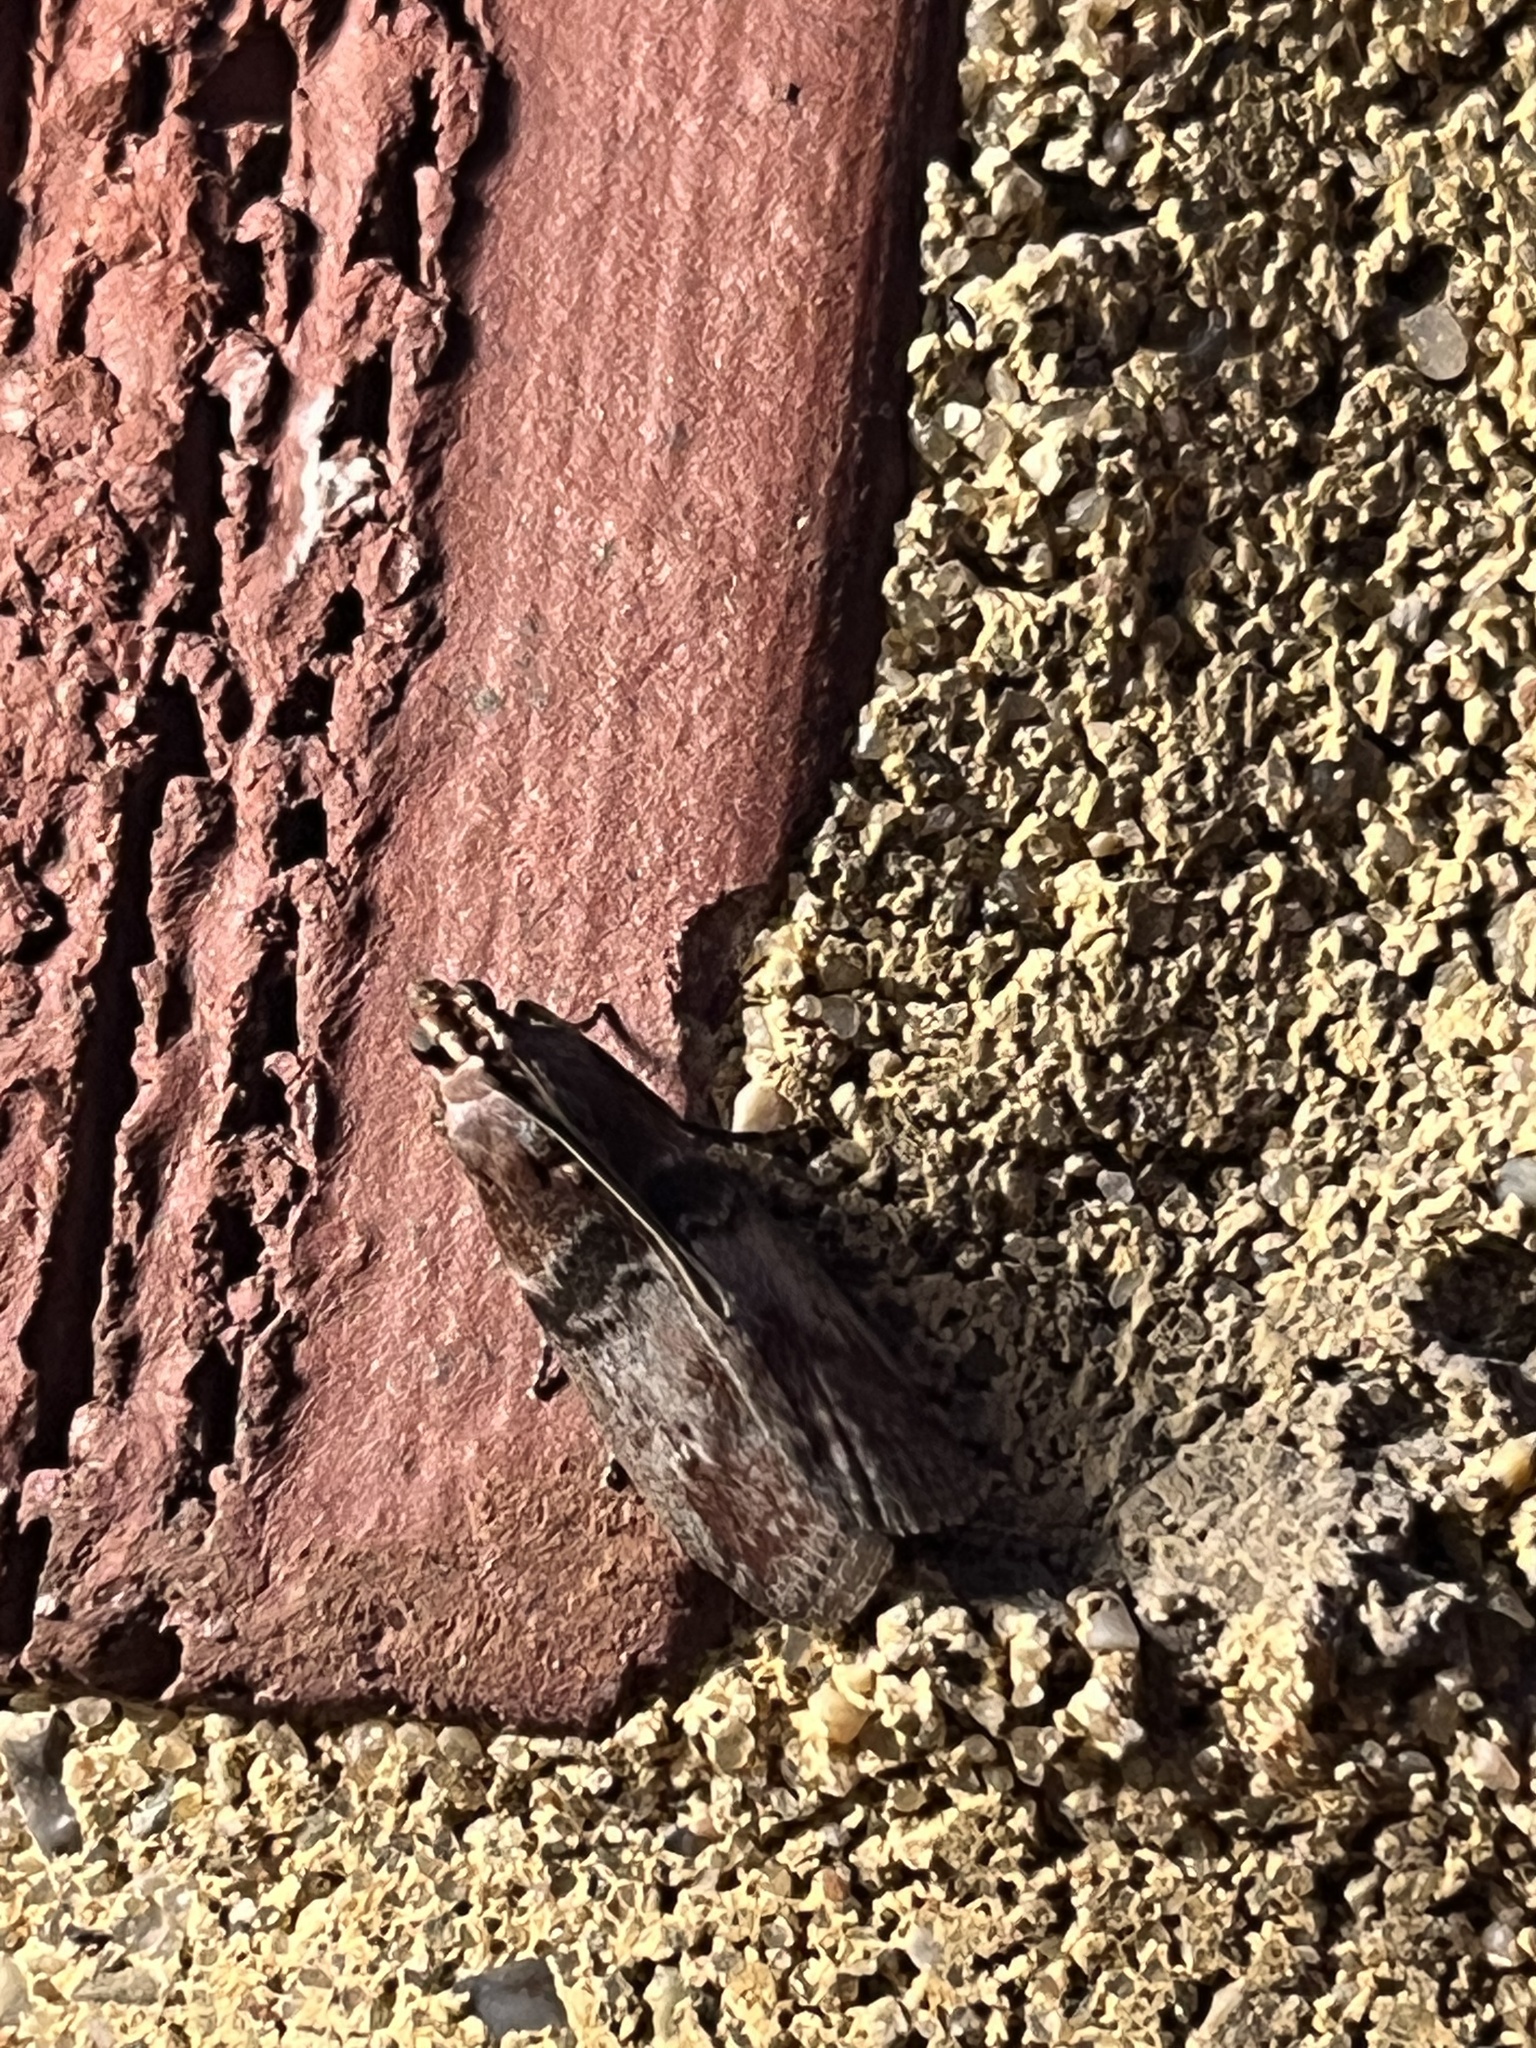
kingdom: Animalia
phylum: Arthropoda
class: Insecta
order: Lepidoptera
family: Pyralidae
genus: Sciota
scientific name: Sciota vetustella
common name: Belted leafroller moth
